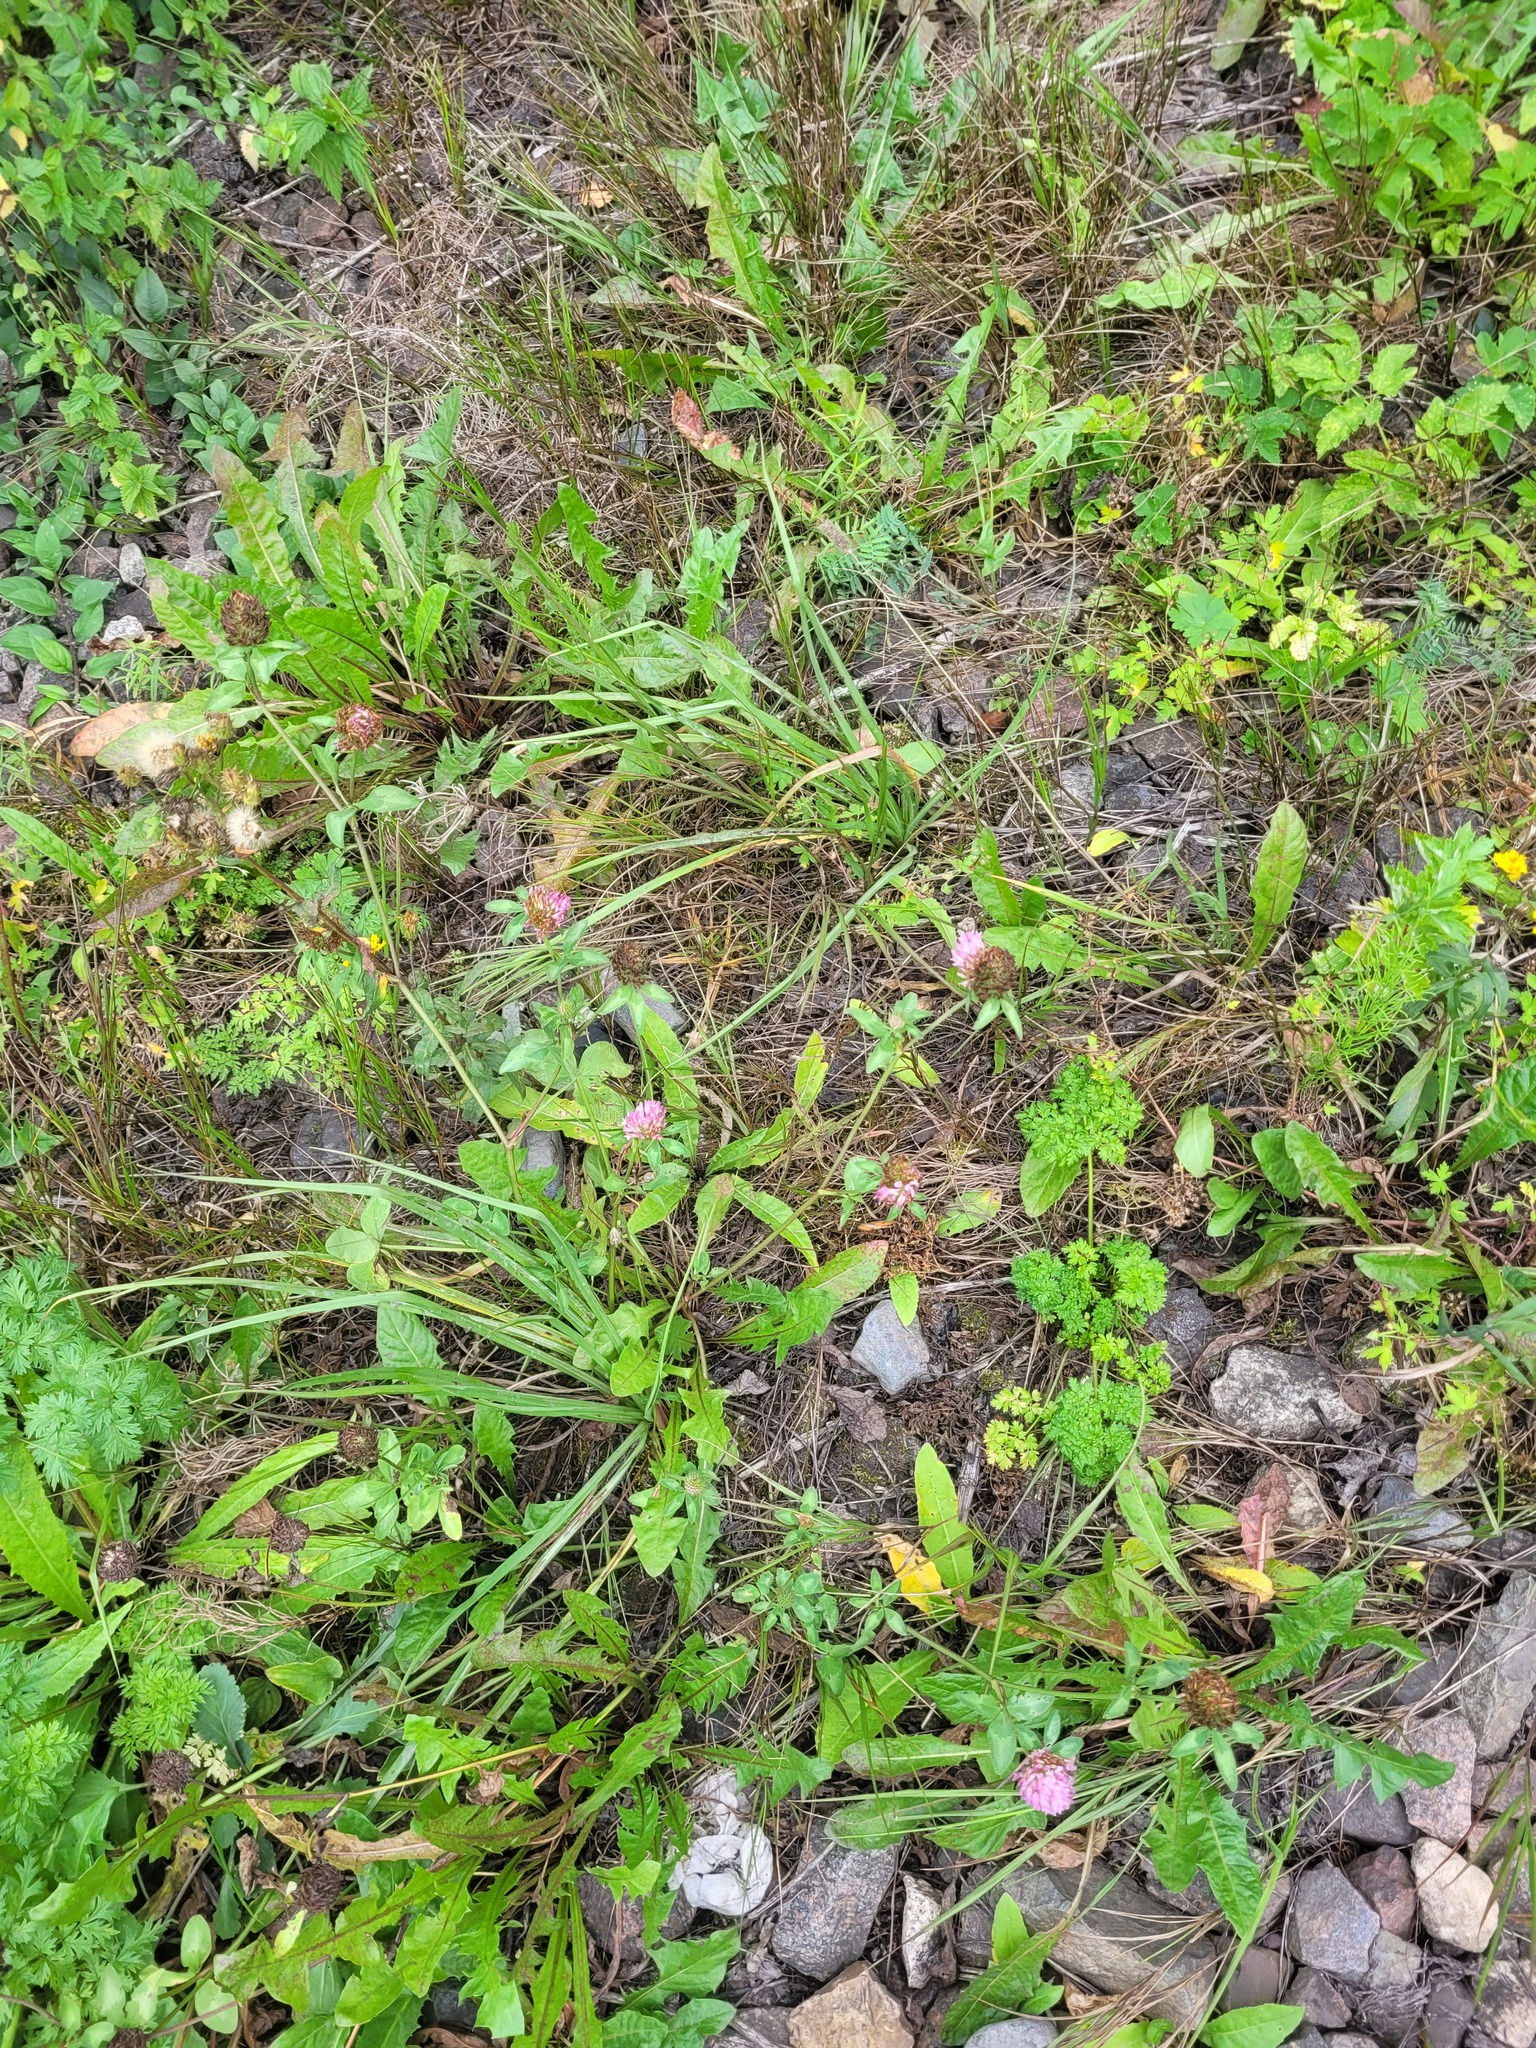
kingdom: Plantae
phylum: Tracheophyta
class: Magnoliopsida
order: Fabales
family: Fabaceae
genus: Trifolium
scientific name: Trifolium pratense
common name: Red clover
